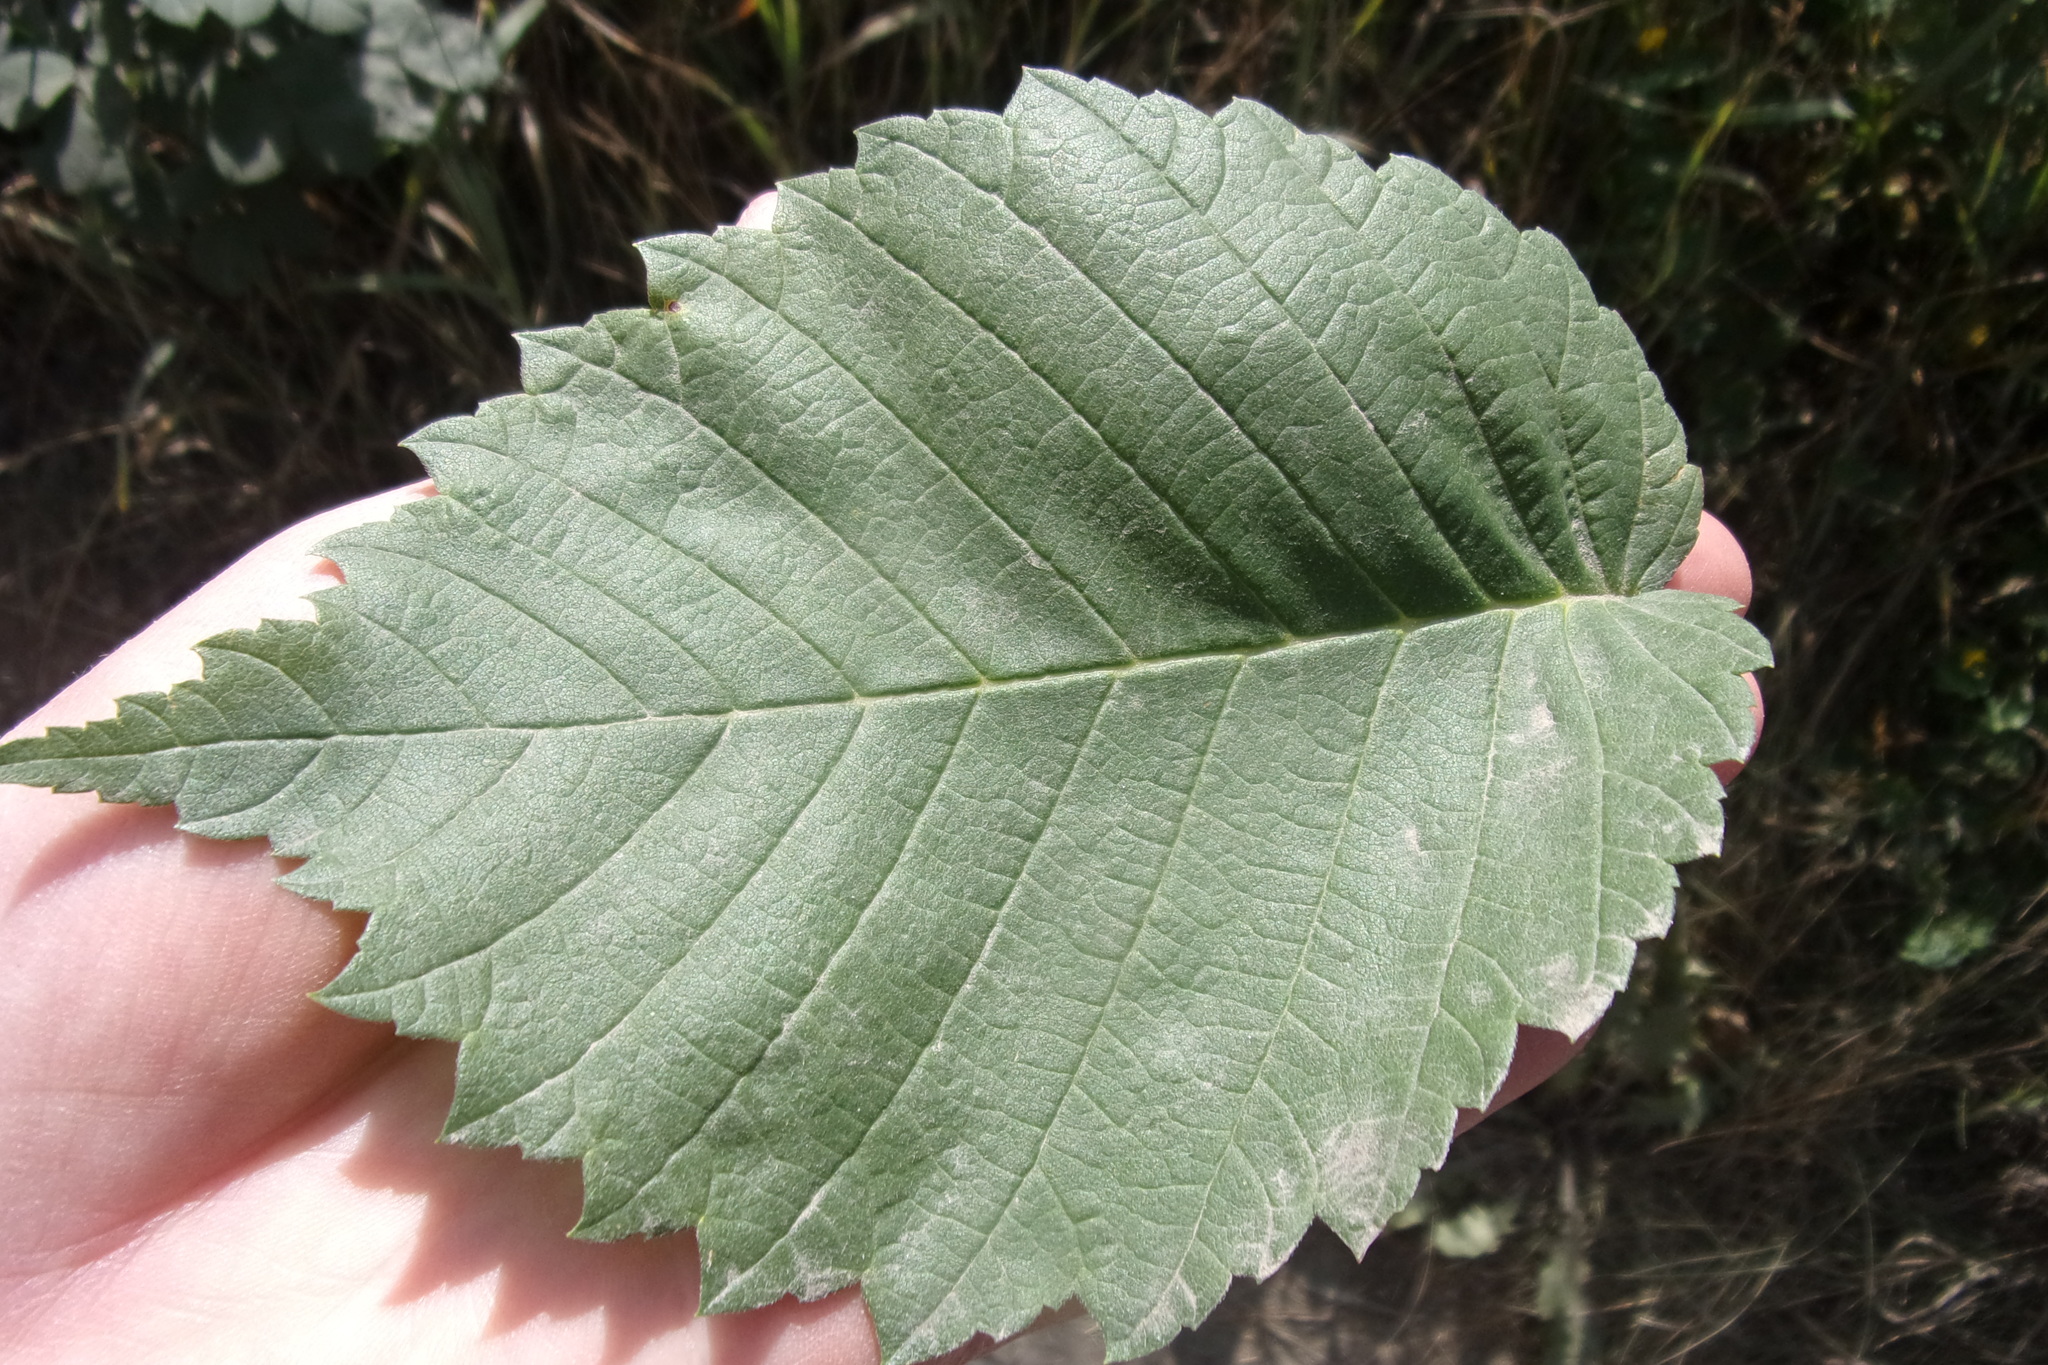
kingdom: Plantae
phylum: Tracheophyta
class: Magnoliopsida
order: Rosales
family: Ulmaceae
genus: Ulmus
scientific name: Ulmus laevis
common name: European white-elm
